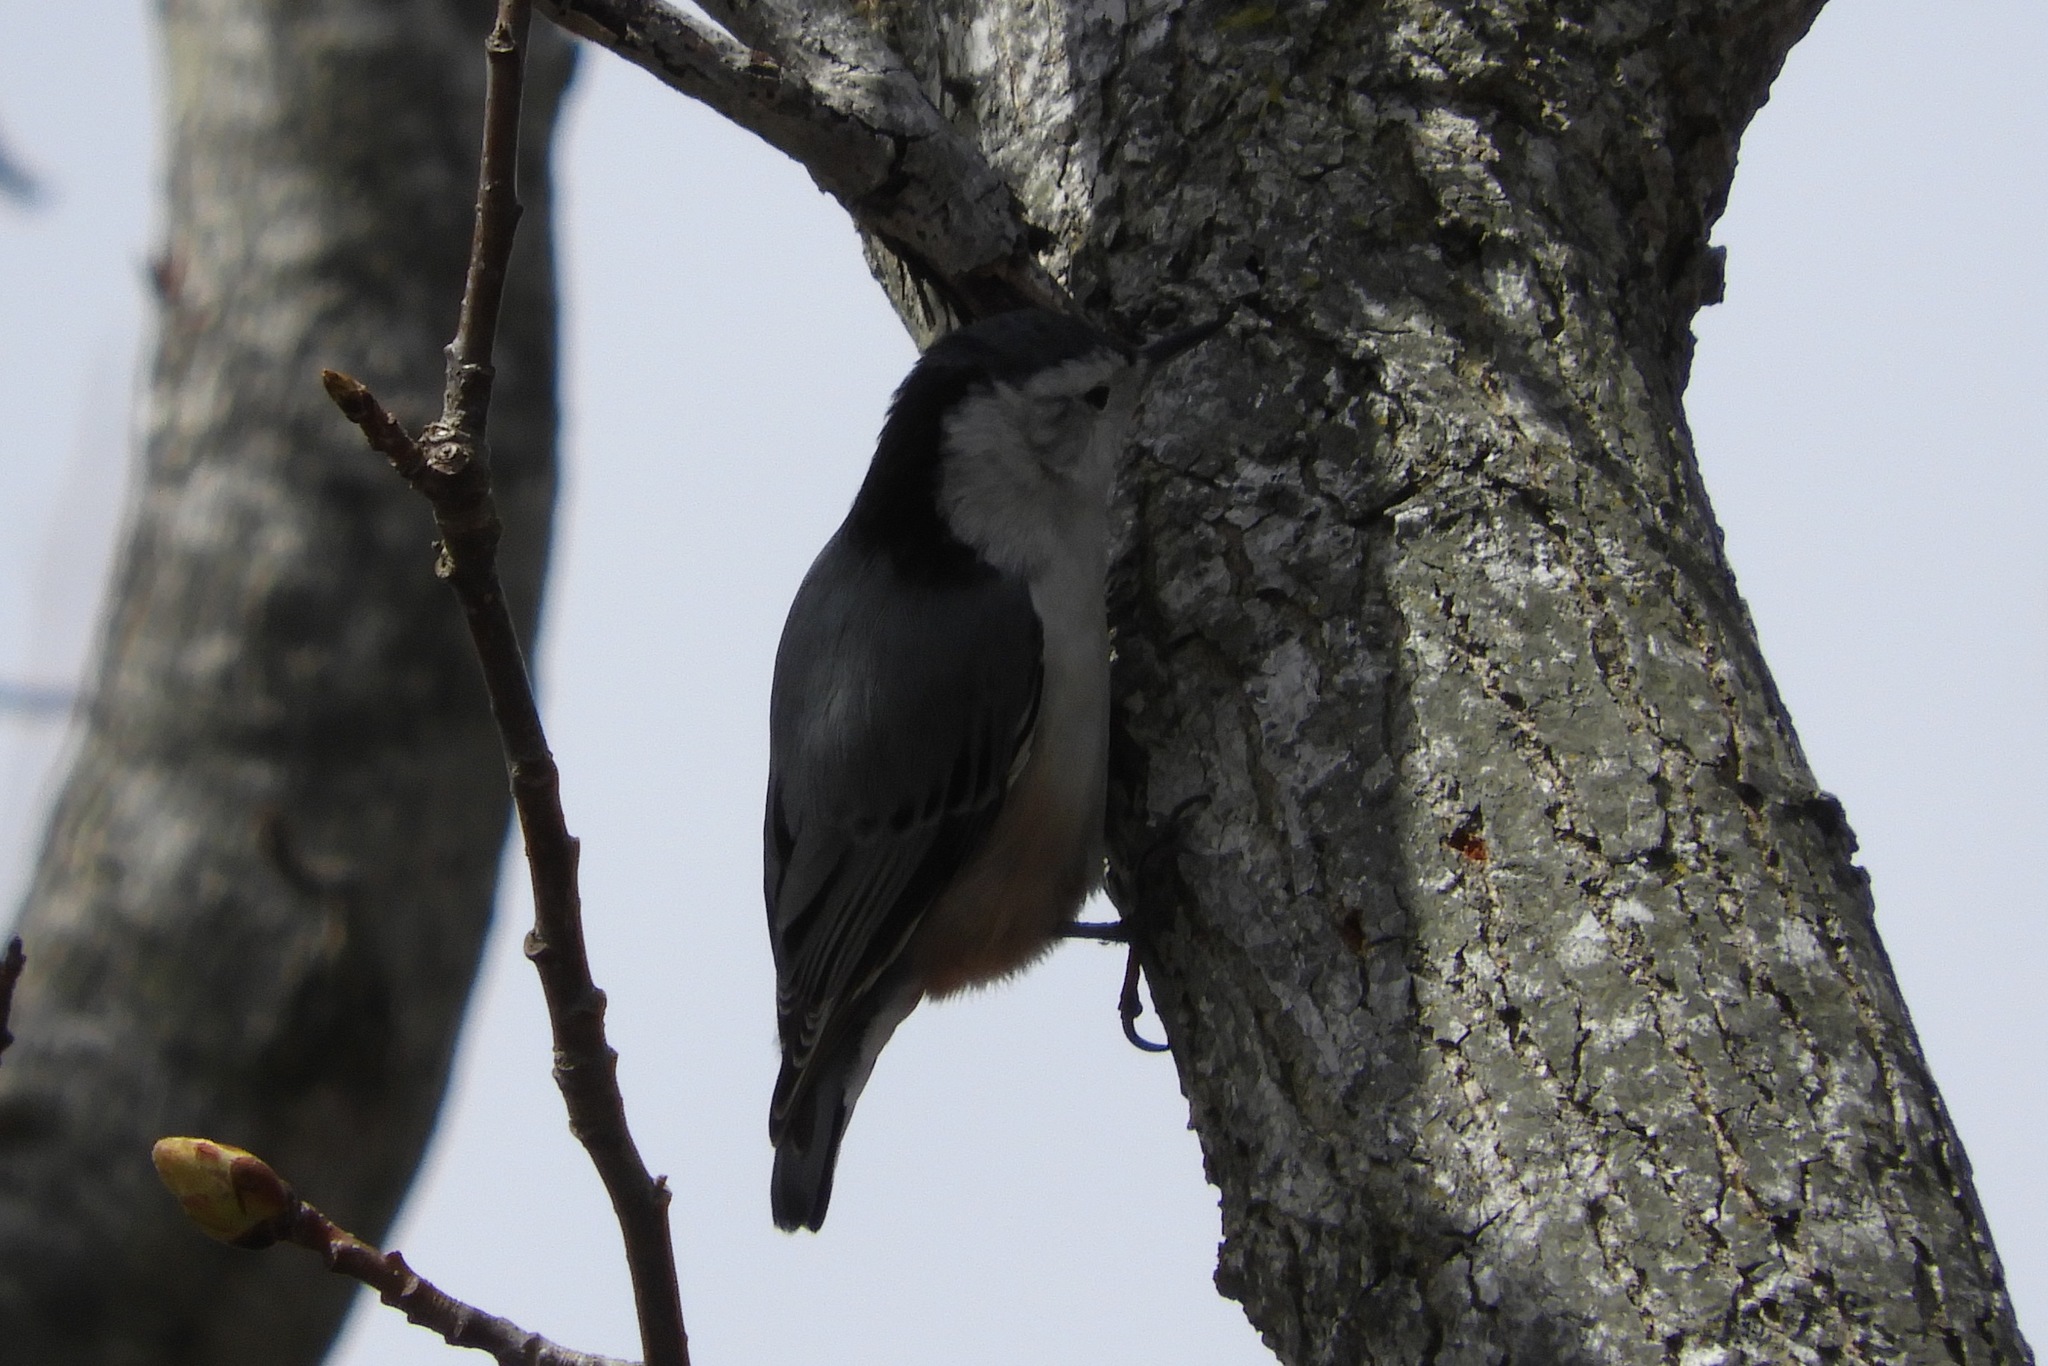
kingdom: Animalia
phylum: Chordata
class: Aves
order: Passeriformes
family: Sittidae
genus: Sitta
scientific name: Sitta carolinensis
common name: White-breasted nuthatch
